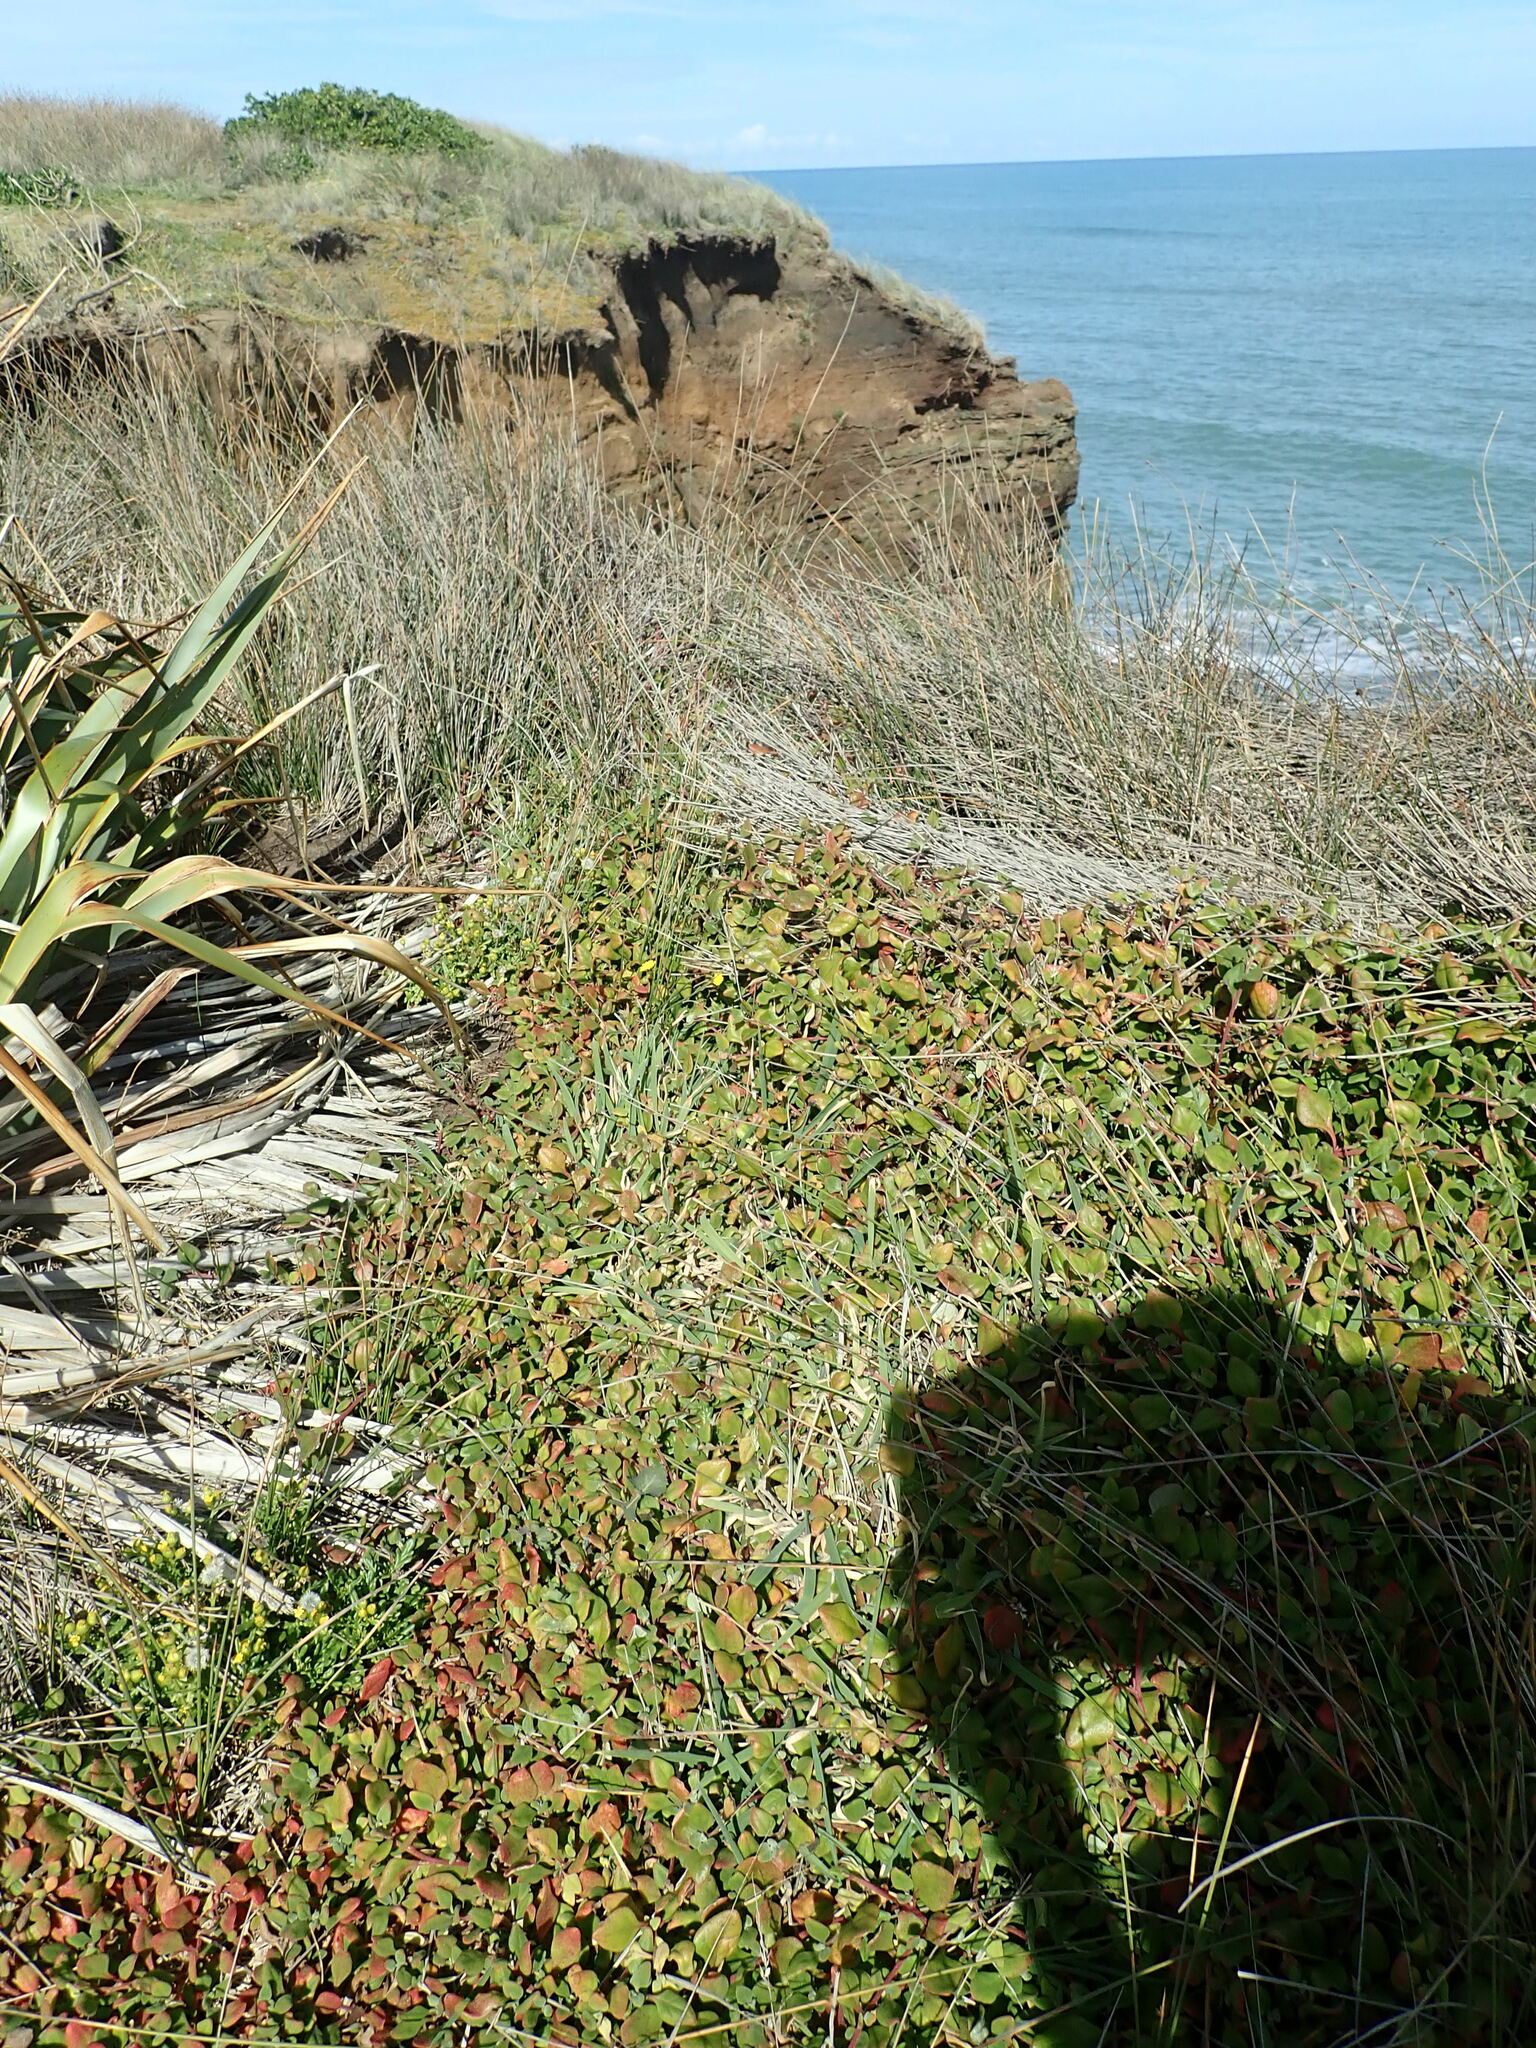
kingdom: Plantae
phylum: Tracheophyta
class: Magnoliopsida
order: Caryophyllales
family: Aizoaceae
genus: Tetragonia
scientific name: Tetragonia implexicoma
